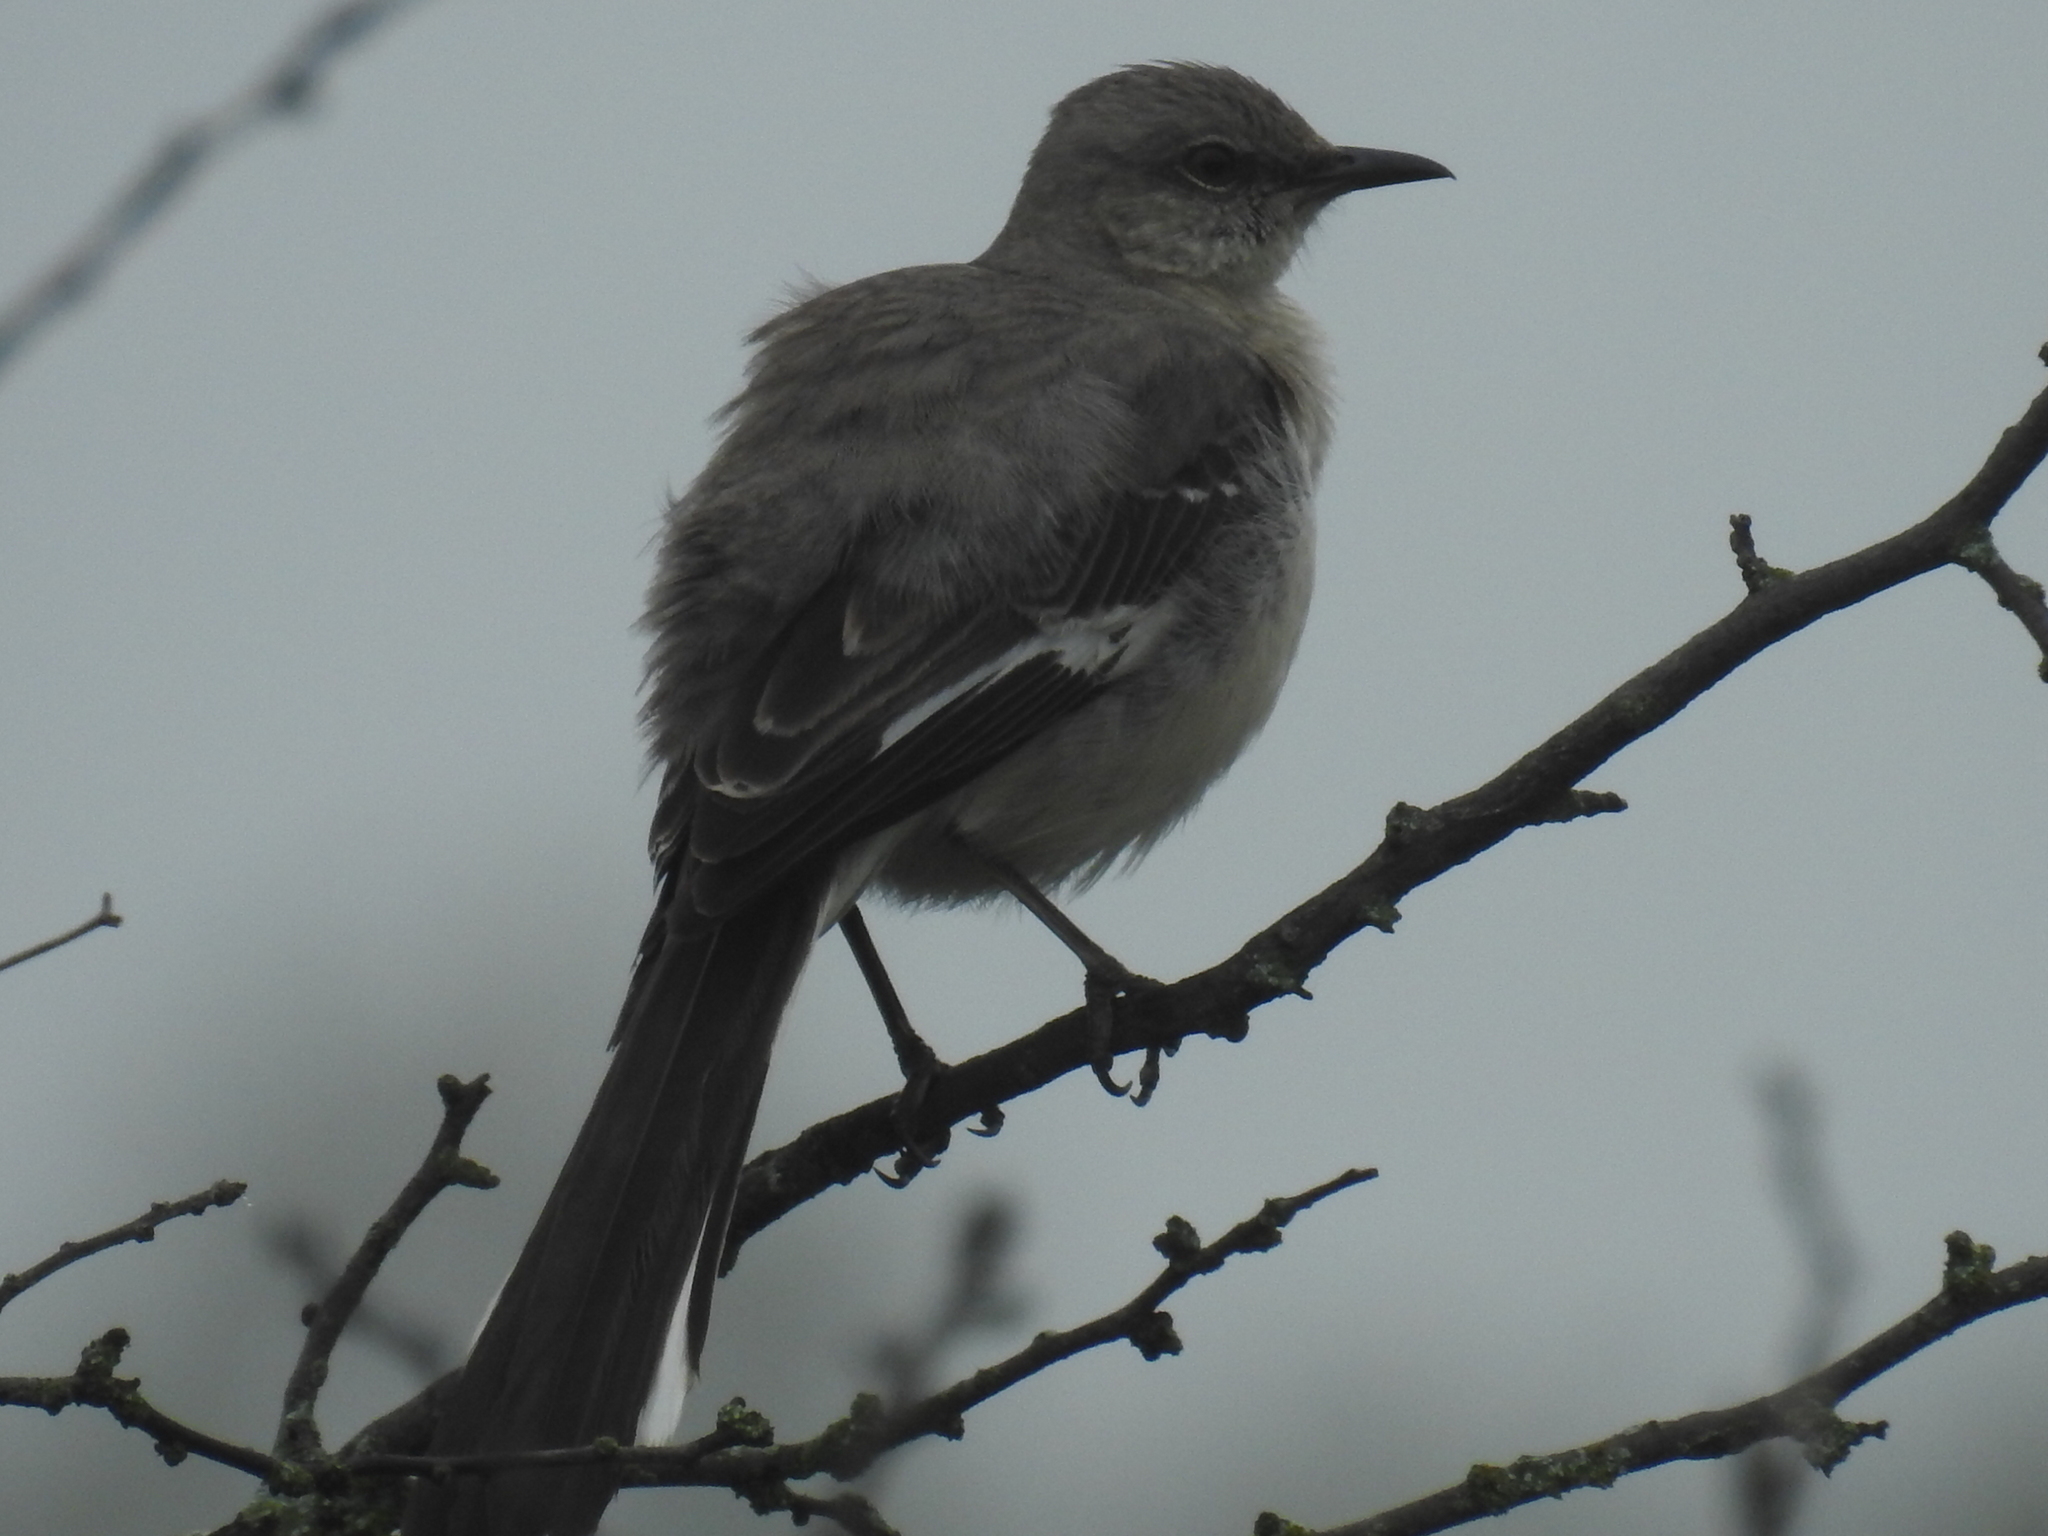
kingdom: Animalia
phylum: Chordata
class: Aves
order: Passeriformes
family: Mimidae
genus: Mimus
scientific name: Mimus polyglottos
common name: Northern mockingbird
